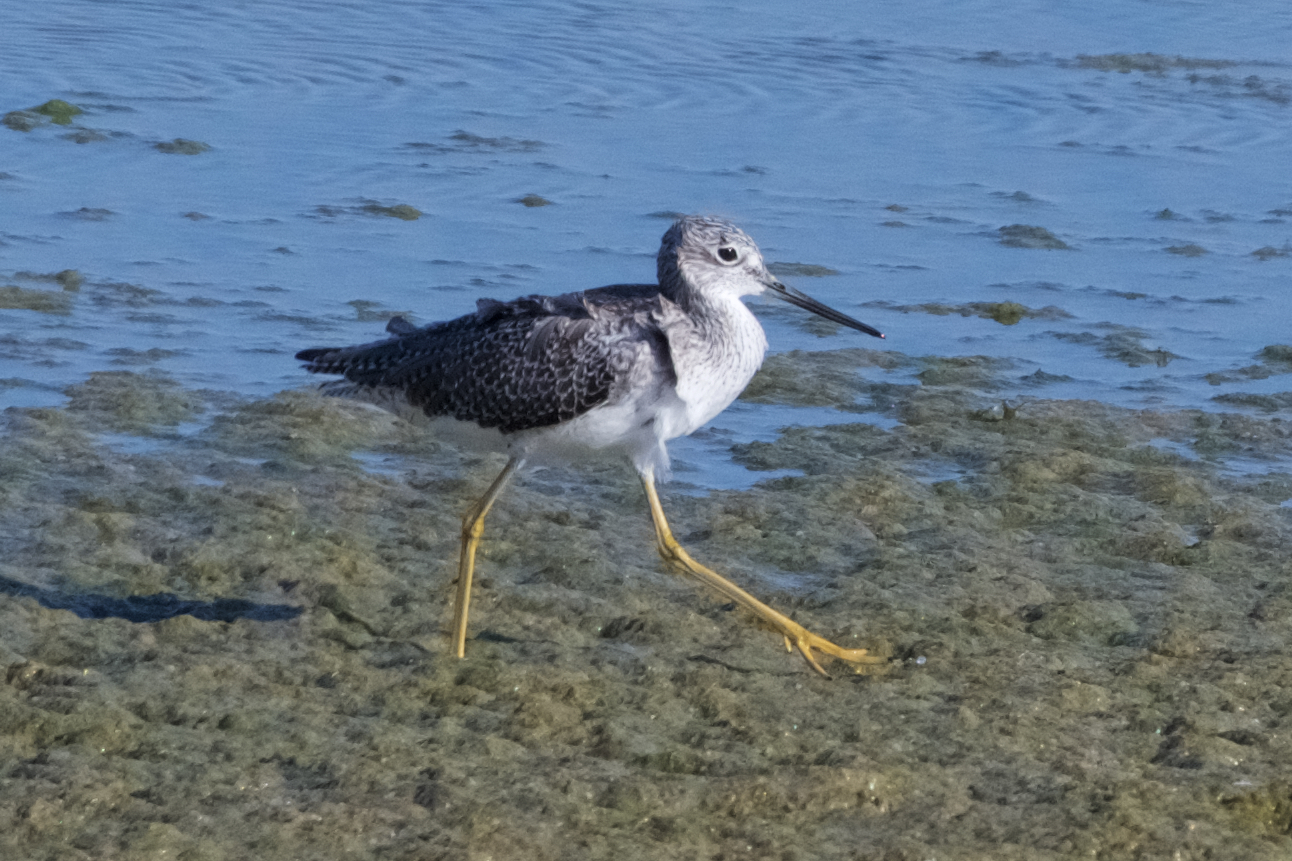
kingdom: Animalia
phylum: Chordata
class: Aves
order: Charadriiformes
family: Scolopacidae
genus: Tringa
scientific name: Tringa melanoleuca
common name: Greater yellowlegs
